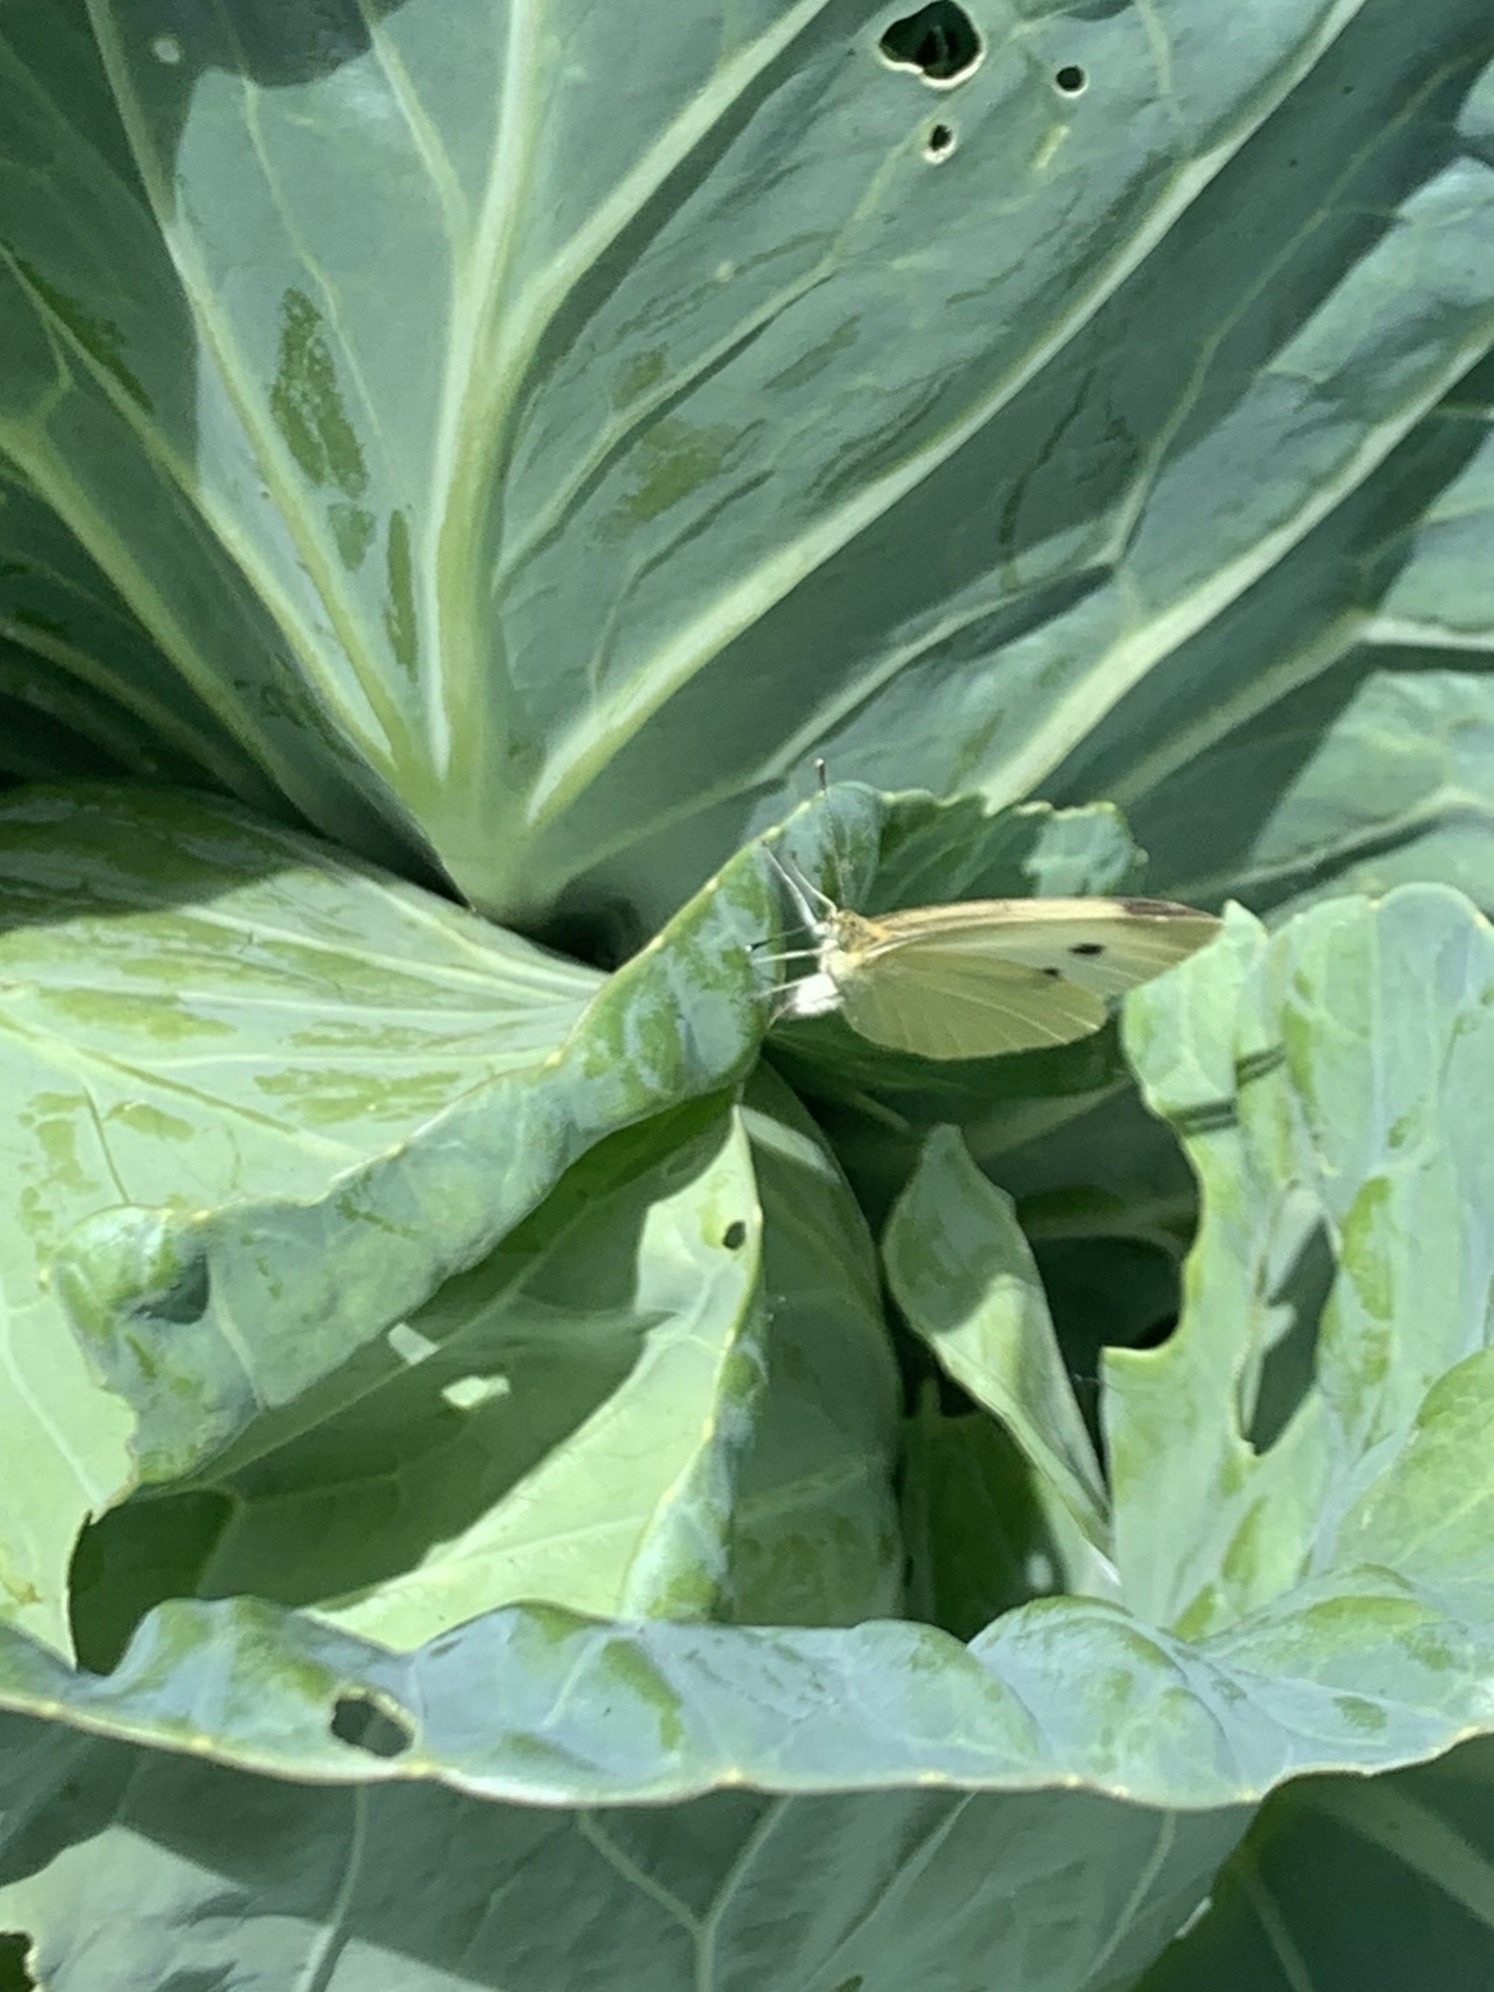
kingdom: Animalia
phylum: Arthropoda
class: Insecta
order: Lepidoptera
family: Pieridae
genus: Pieris
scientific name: Pieris rapae
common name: Small white
